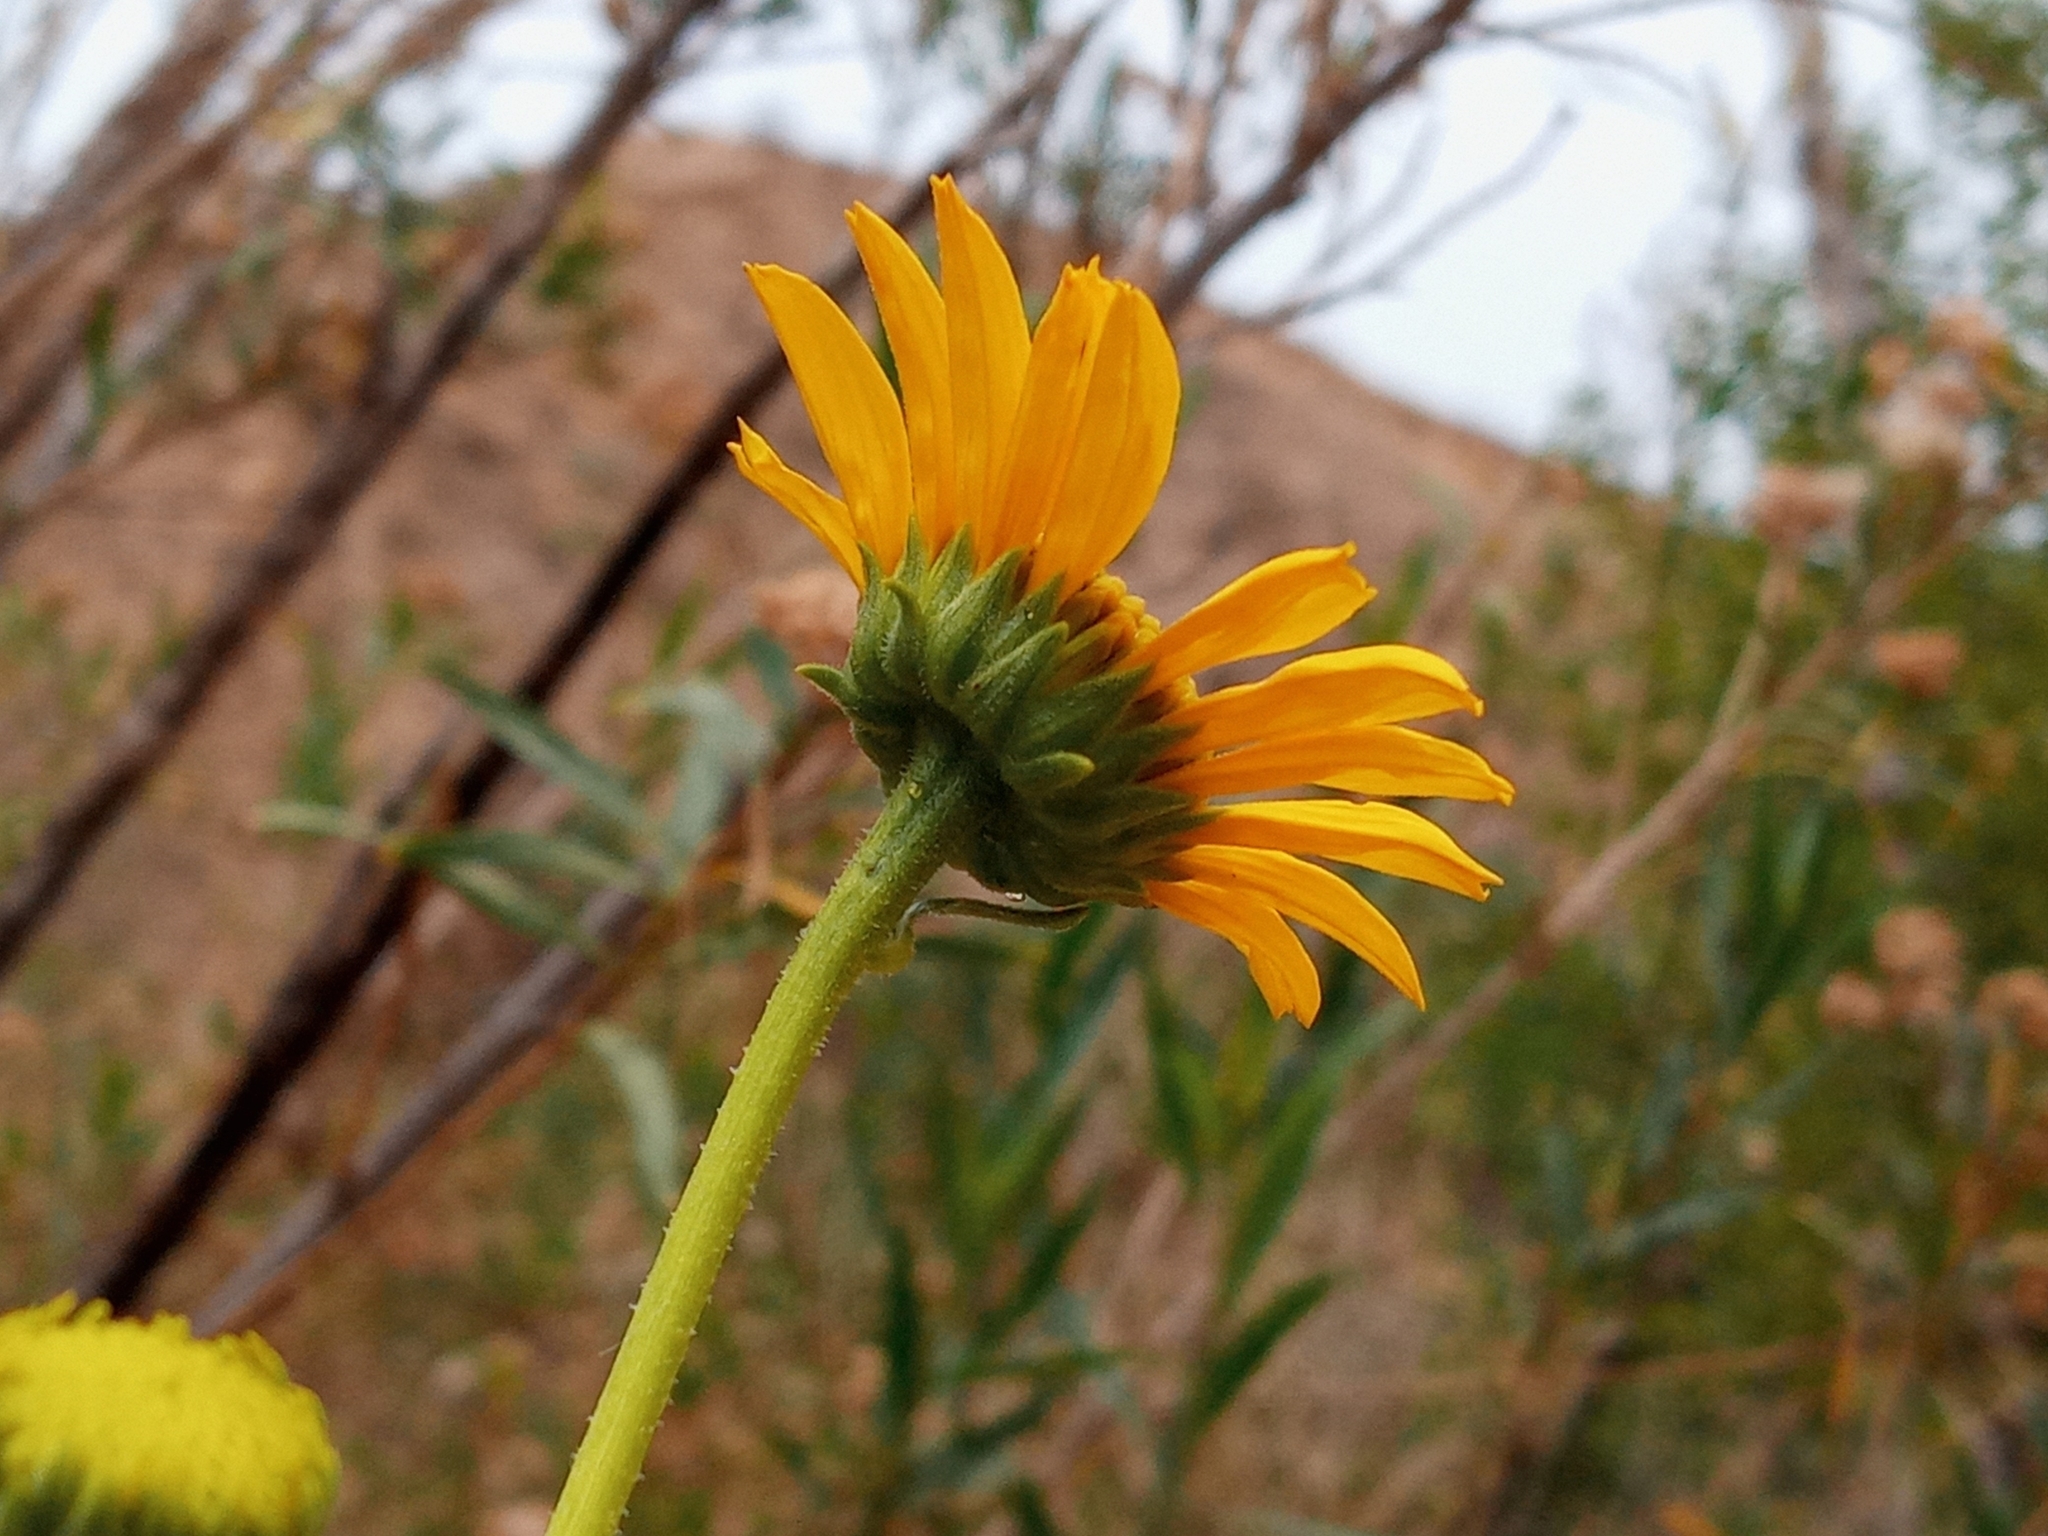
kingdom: Plantae
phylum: Tracheophyta
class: Magnoliopsida
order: Asterales
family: Asteraceae
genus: Helianthus
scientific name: Helianthus gracilentus
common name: Slender sunflower
